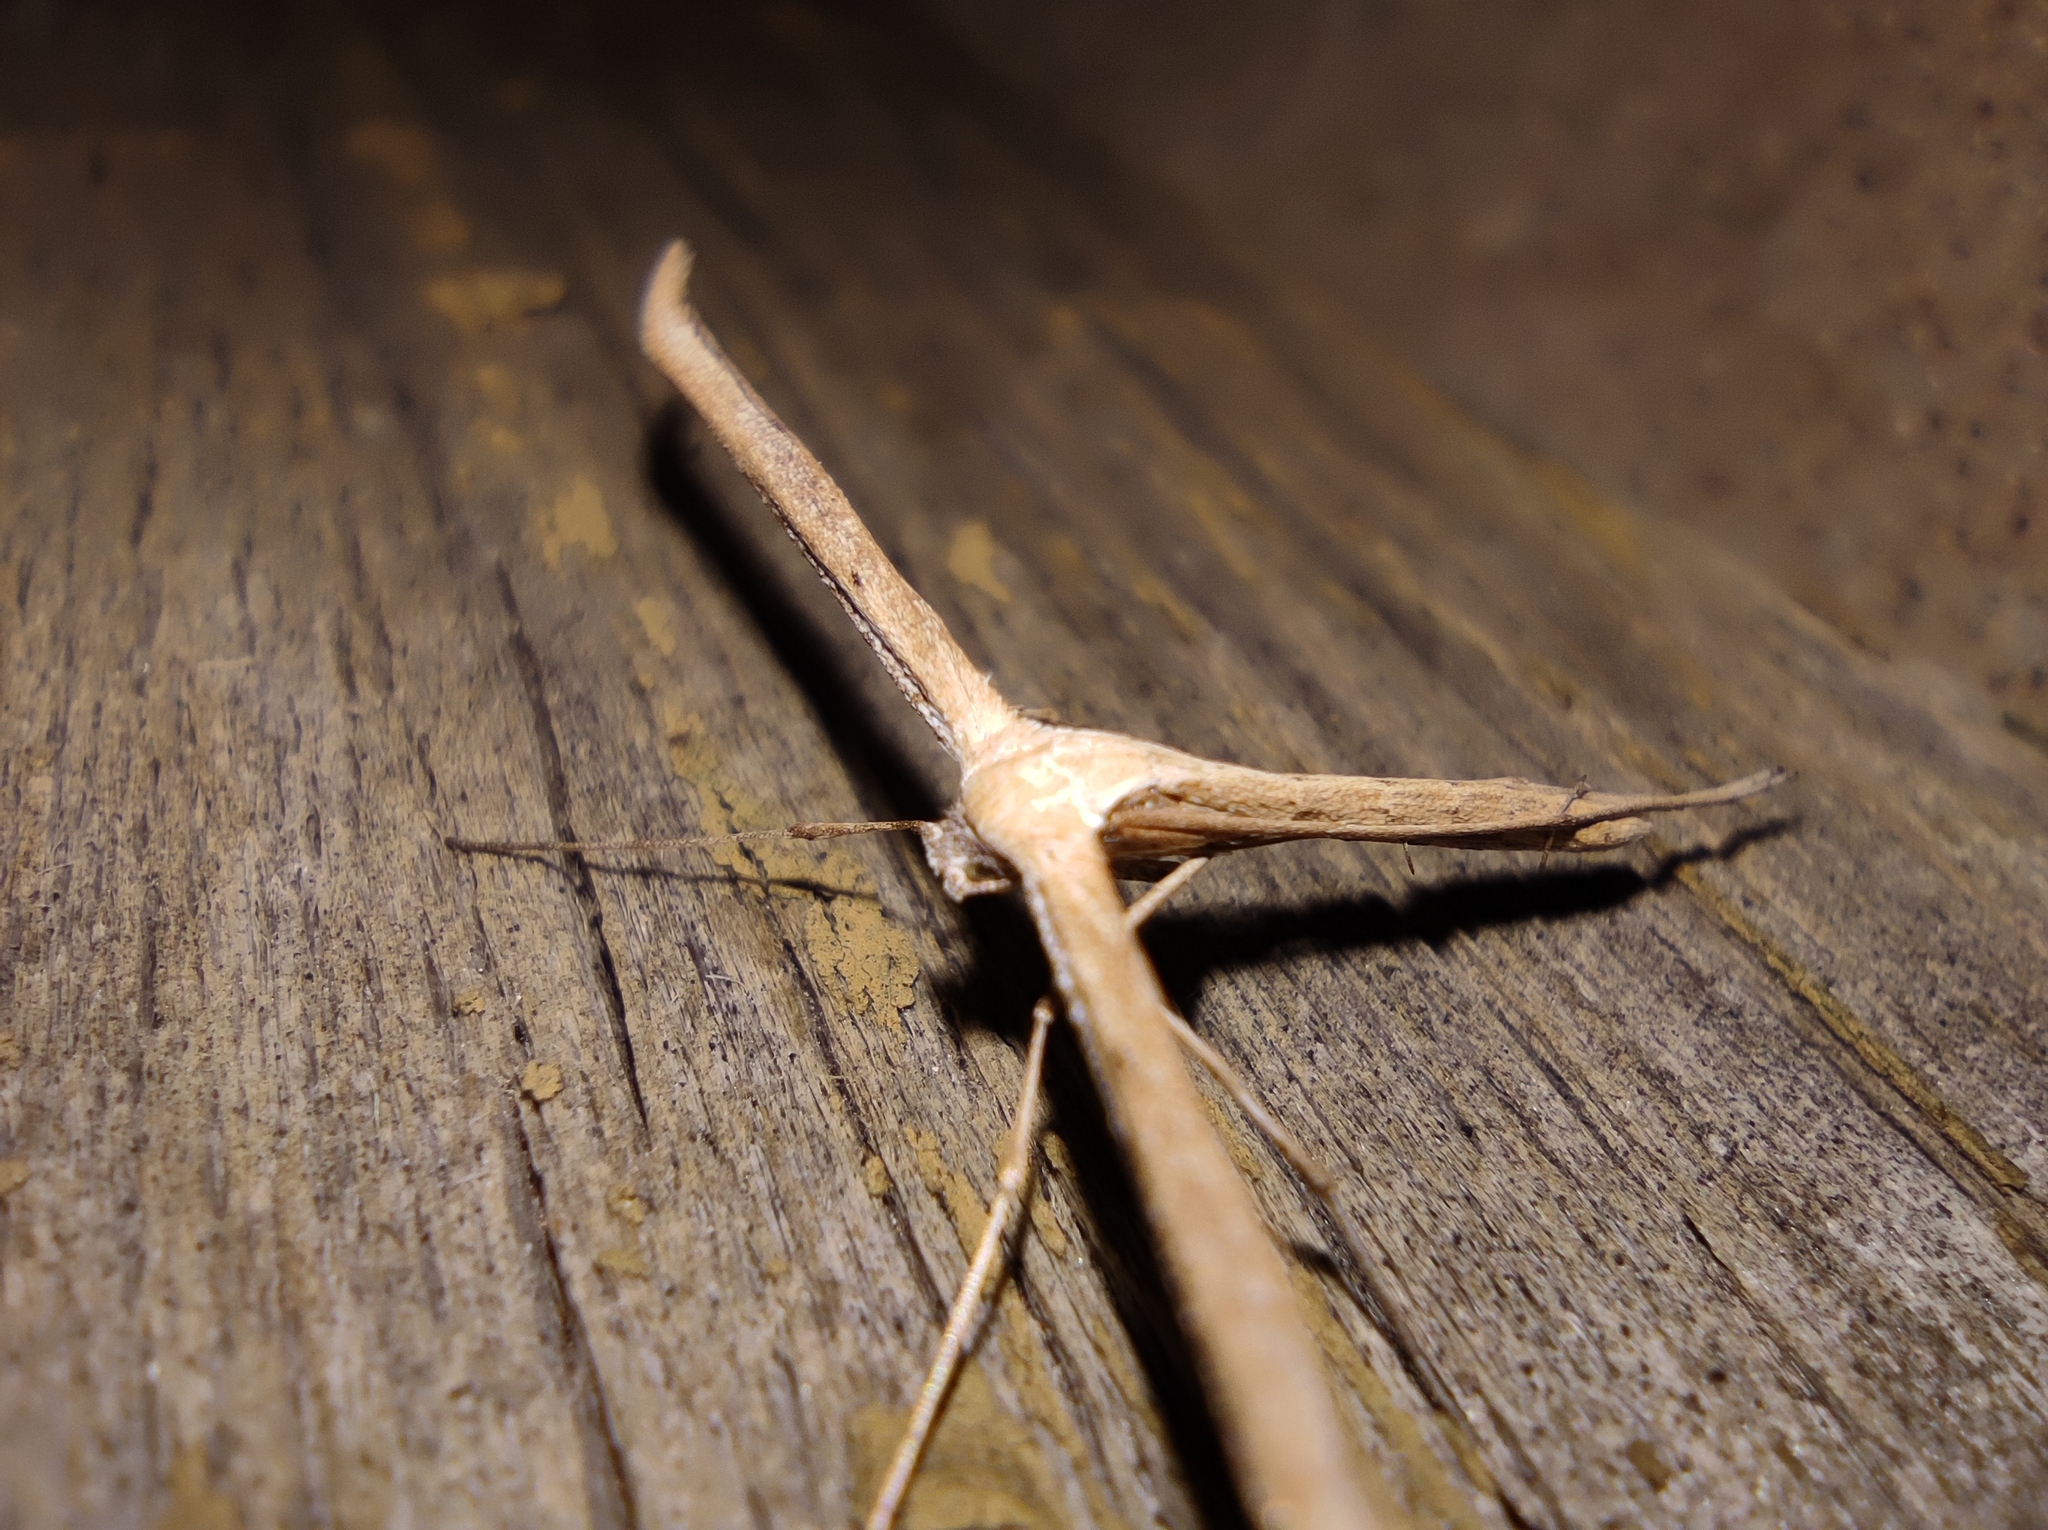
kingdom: Animalia
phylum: Arthropoda
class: Insecta
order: Lepidoptera
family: Pterophoridae
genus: Emmelina
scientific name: Emmelina monodactyla
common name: Common plume
